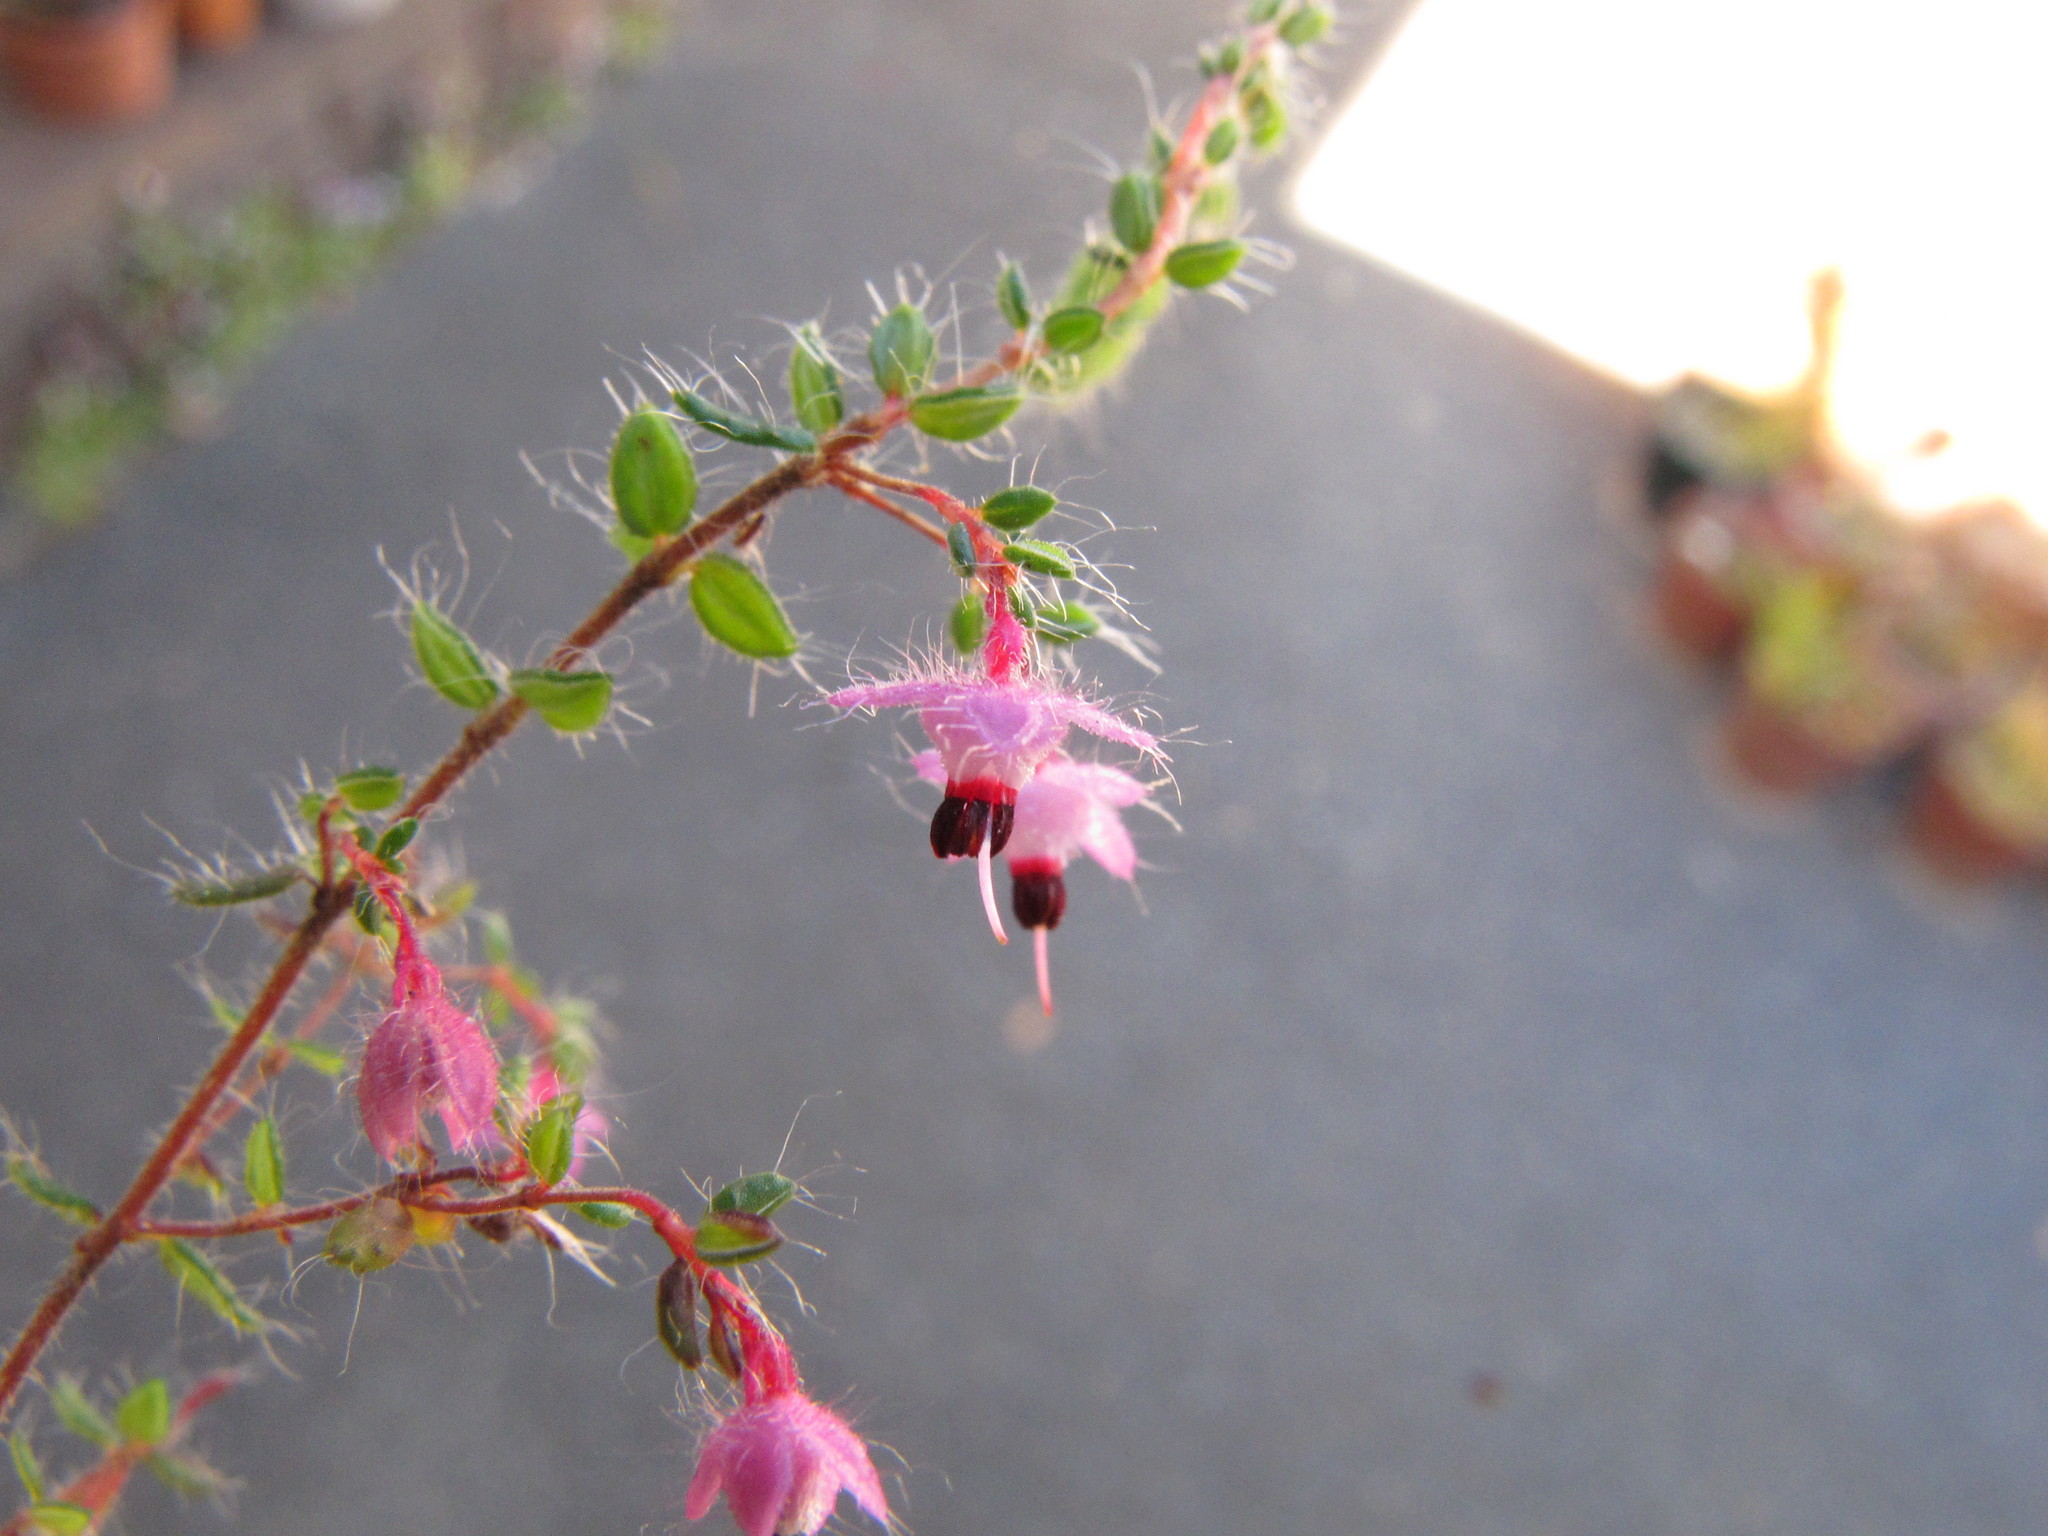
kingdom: Plantae
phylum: Tracheophyta
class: Magnoliopsida
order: Ericales
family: Ericaceae
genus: Erica
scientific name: Erica oligantha
